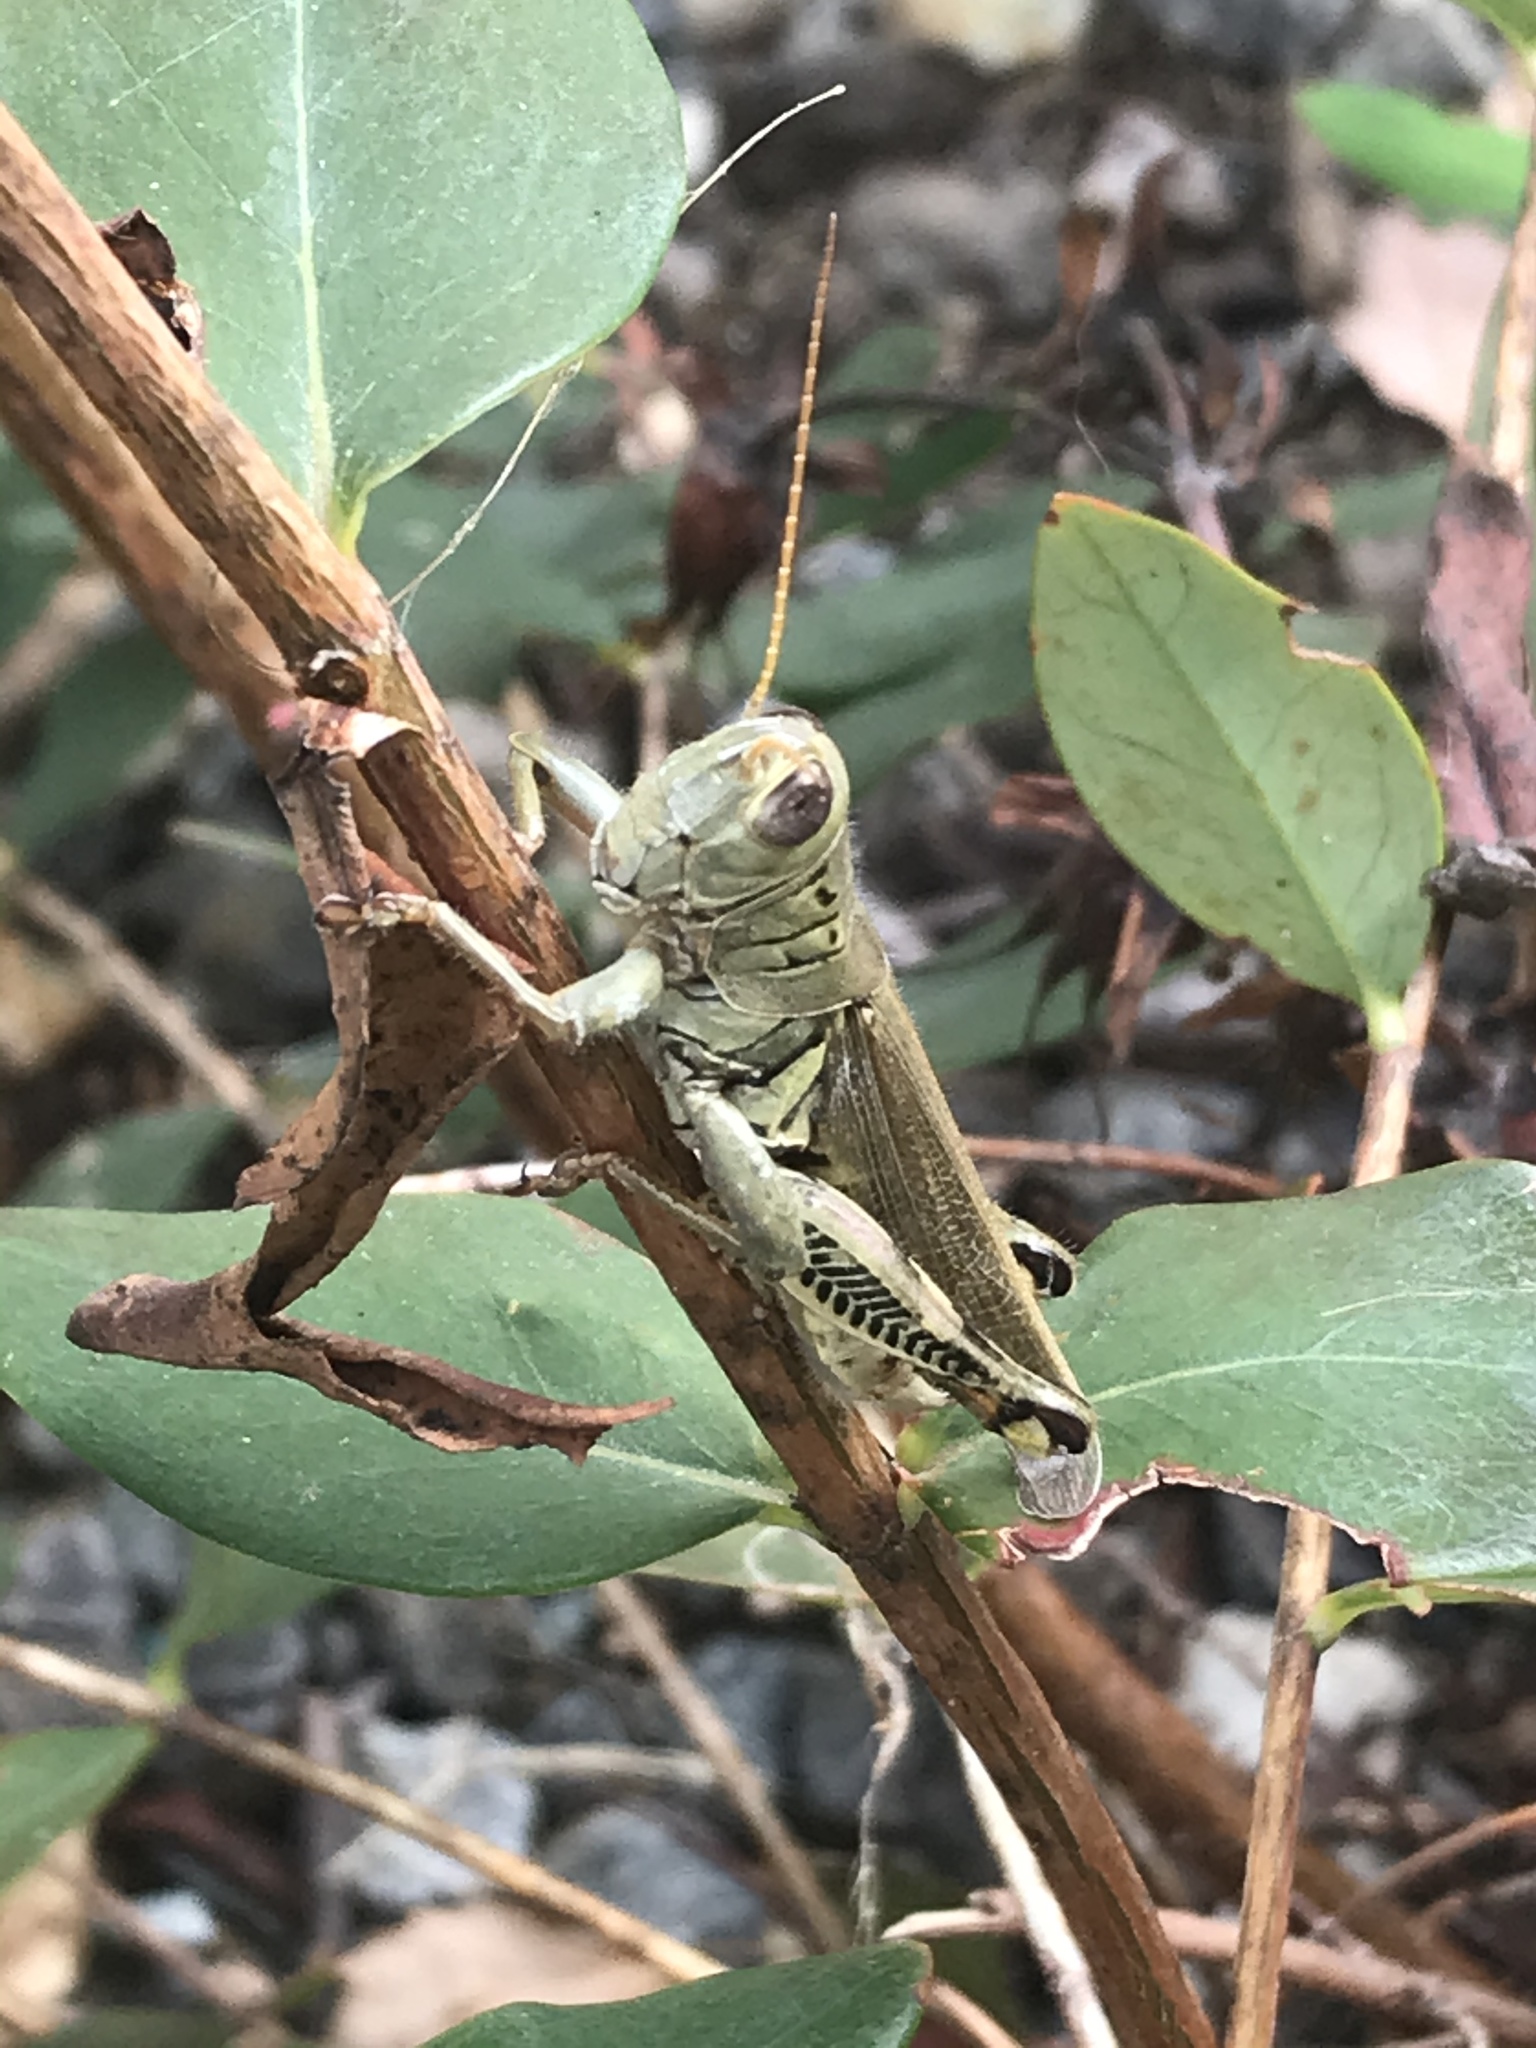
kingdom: Animalia
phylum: Arthropoda
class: Insecta
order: Orthoptera
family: Acrididae
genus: Melanoplus
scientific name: Melanoplus differentialis
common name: Differential grasshopper
